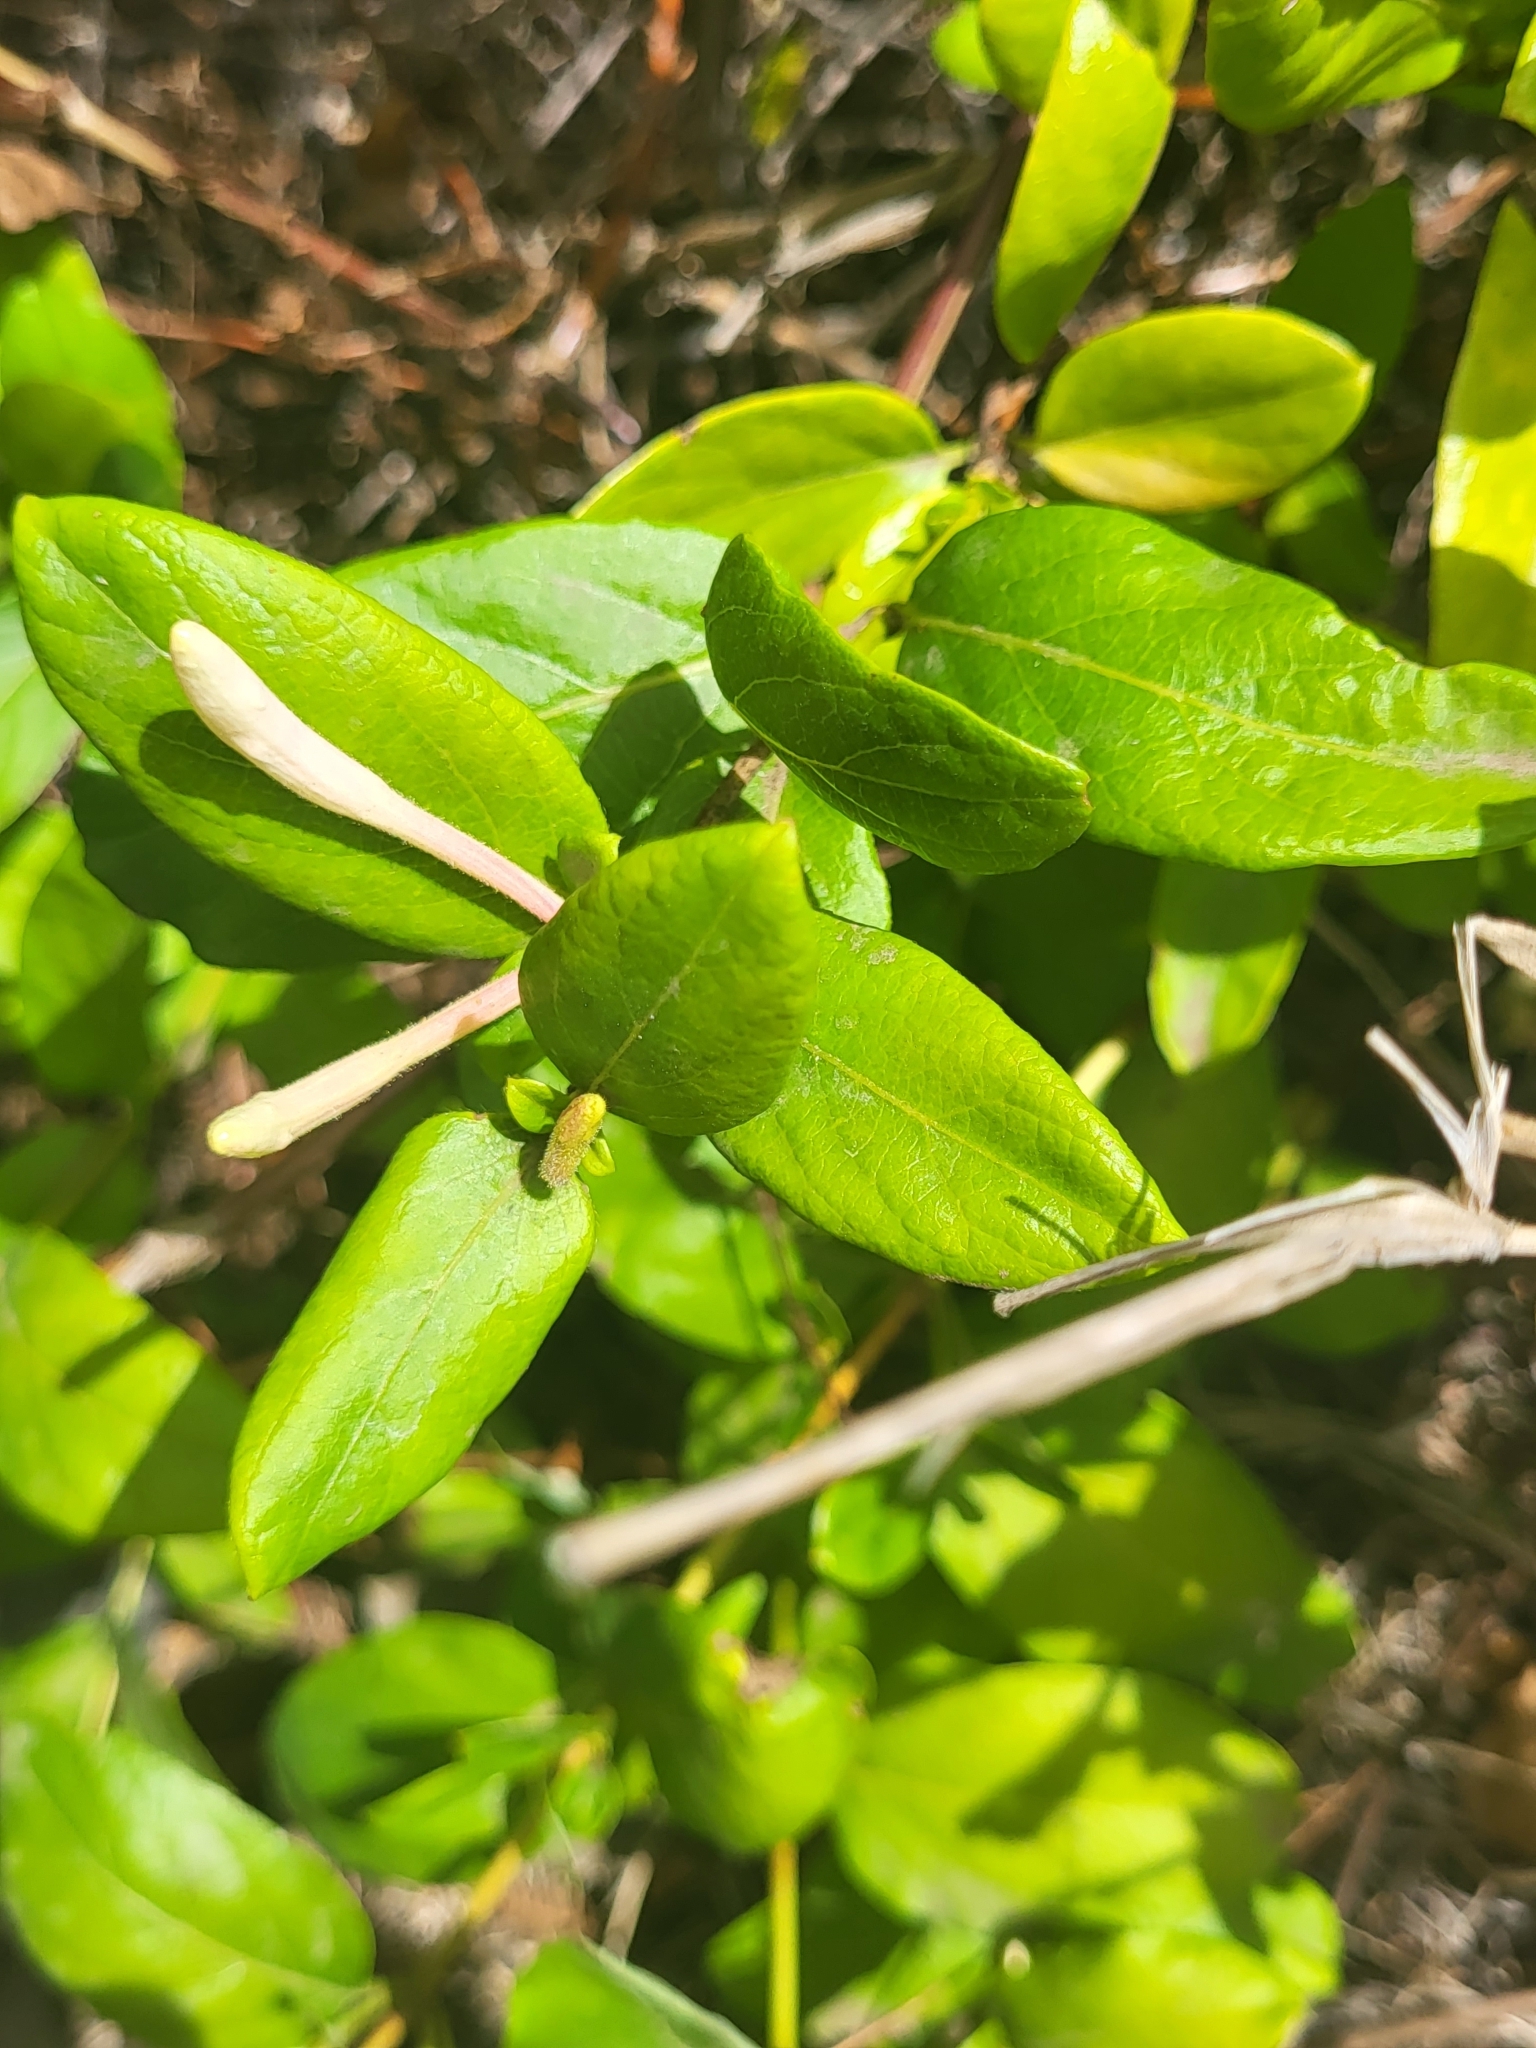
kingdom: Plantae
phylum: Tracheophyta
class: Magnoliopsida
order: Dipsacales
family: Caprifoliaceae
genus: Lonicera
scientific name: Lonicera japonica
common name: Japanese honeysuckle
